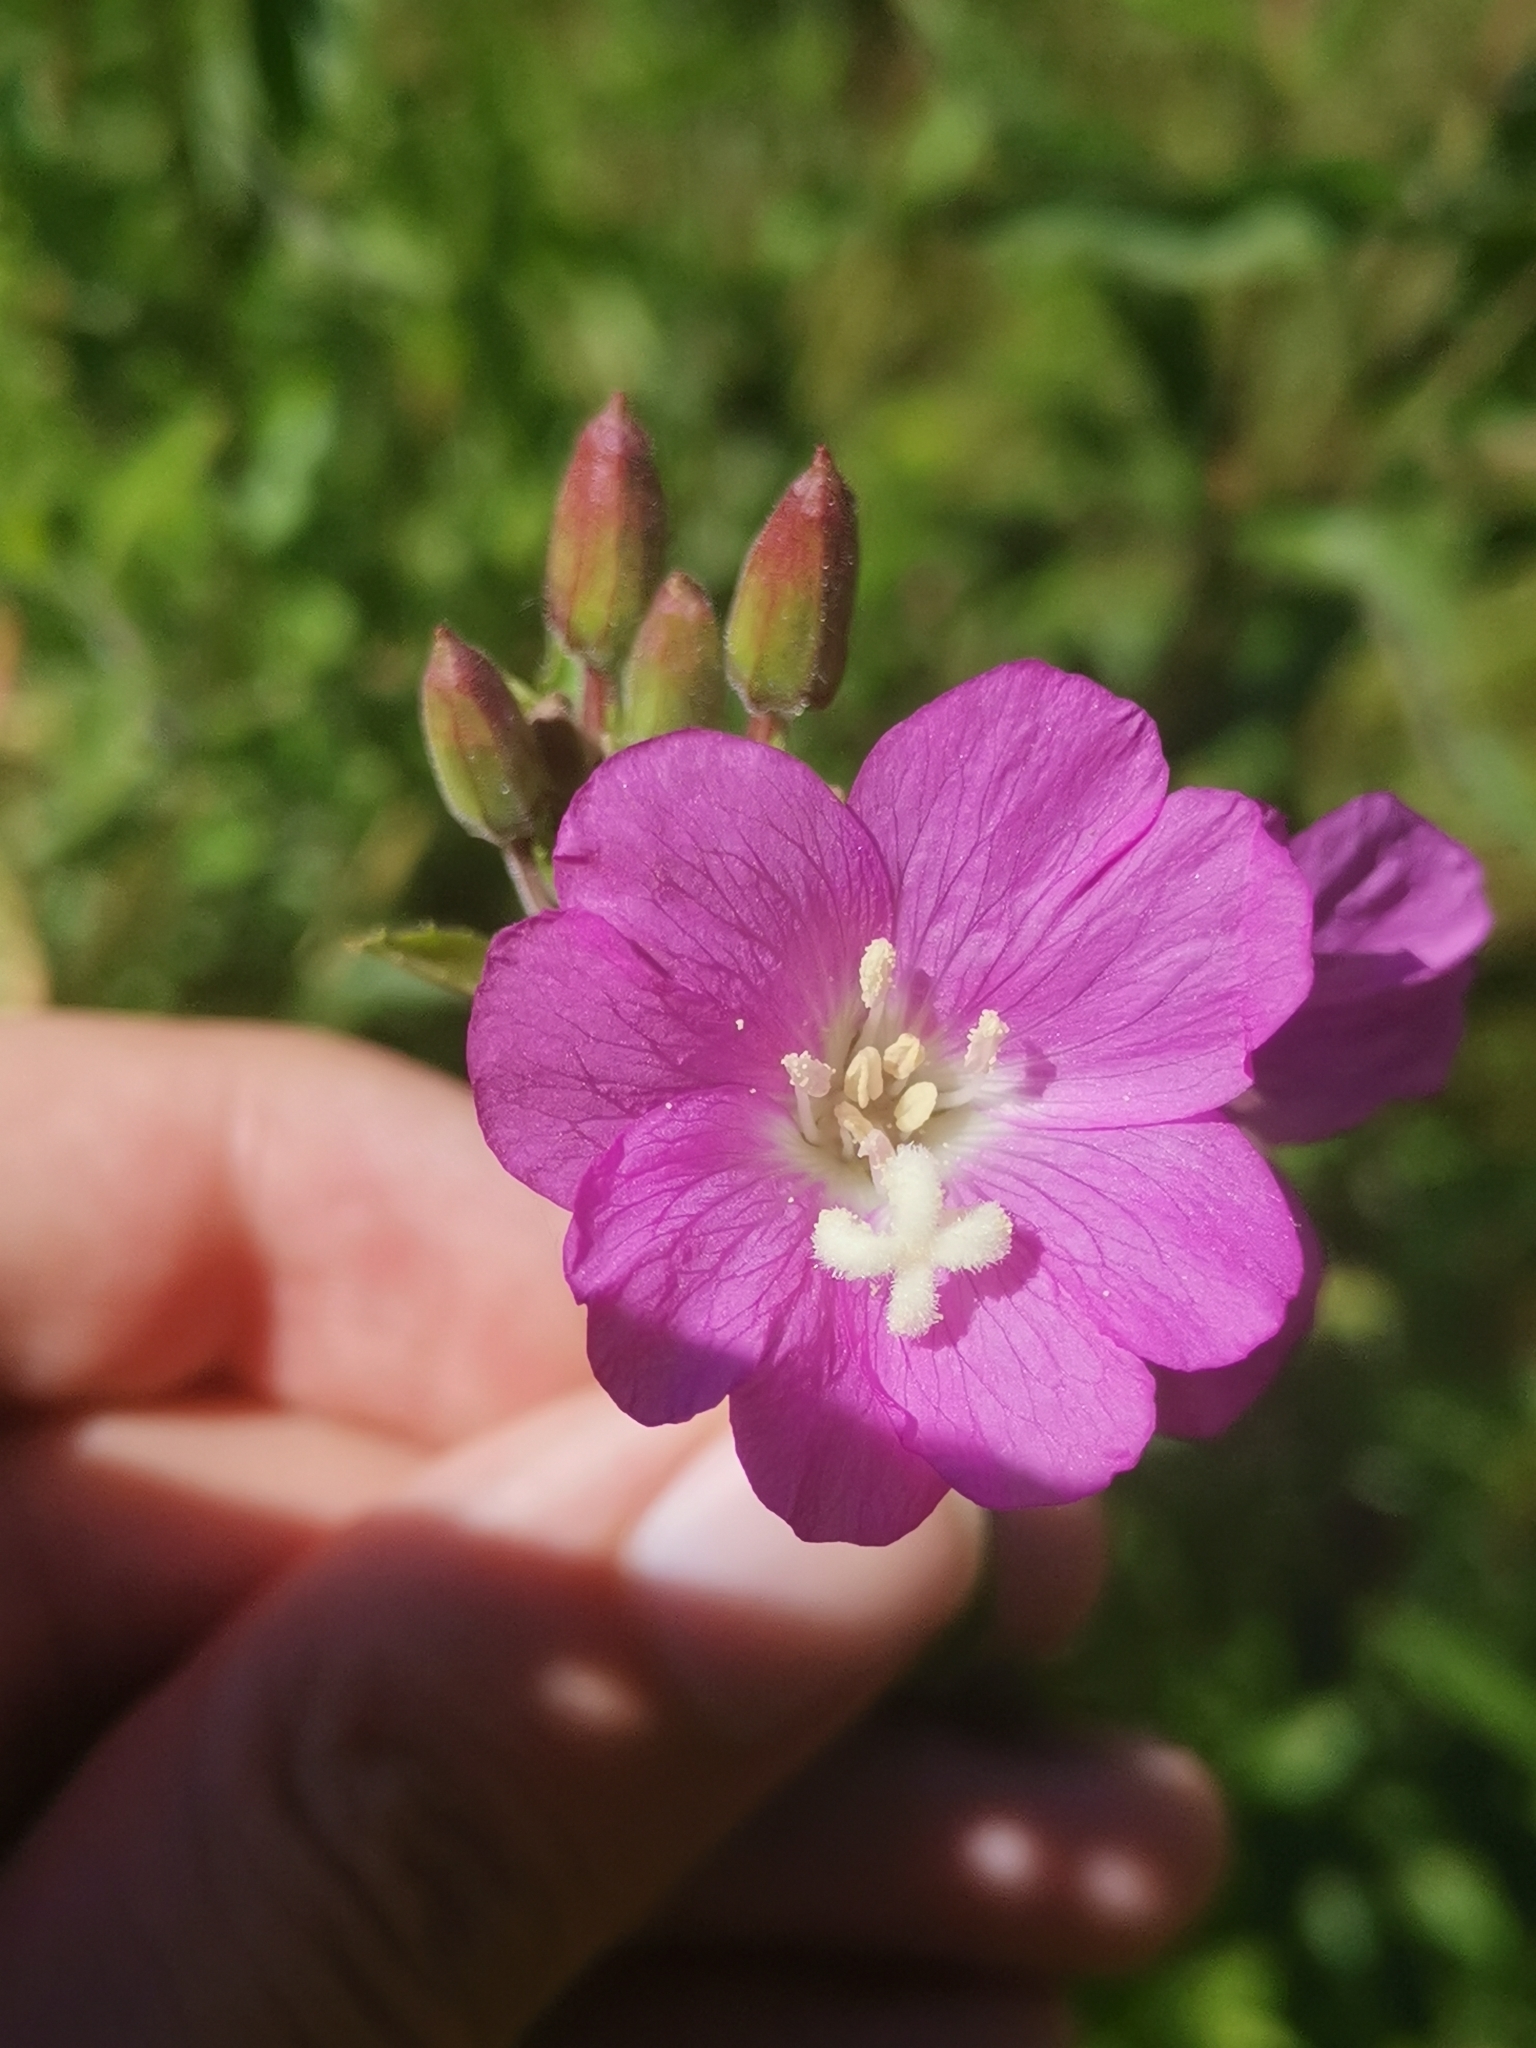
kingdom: Plantae
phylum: Tracheophyta
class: Magnoliopsida
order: Myrtales
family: Onagraceae
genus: Epilobium
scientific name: Epilobium hirsutum
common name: Great willowherb
